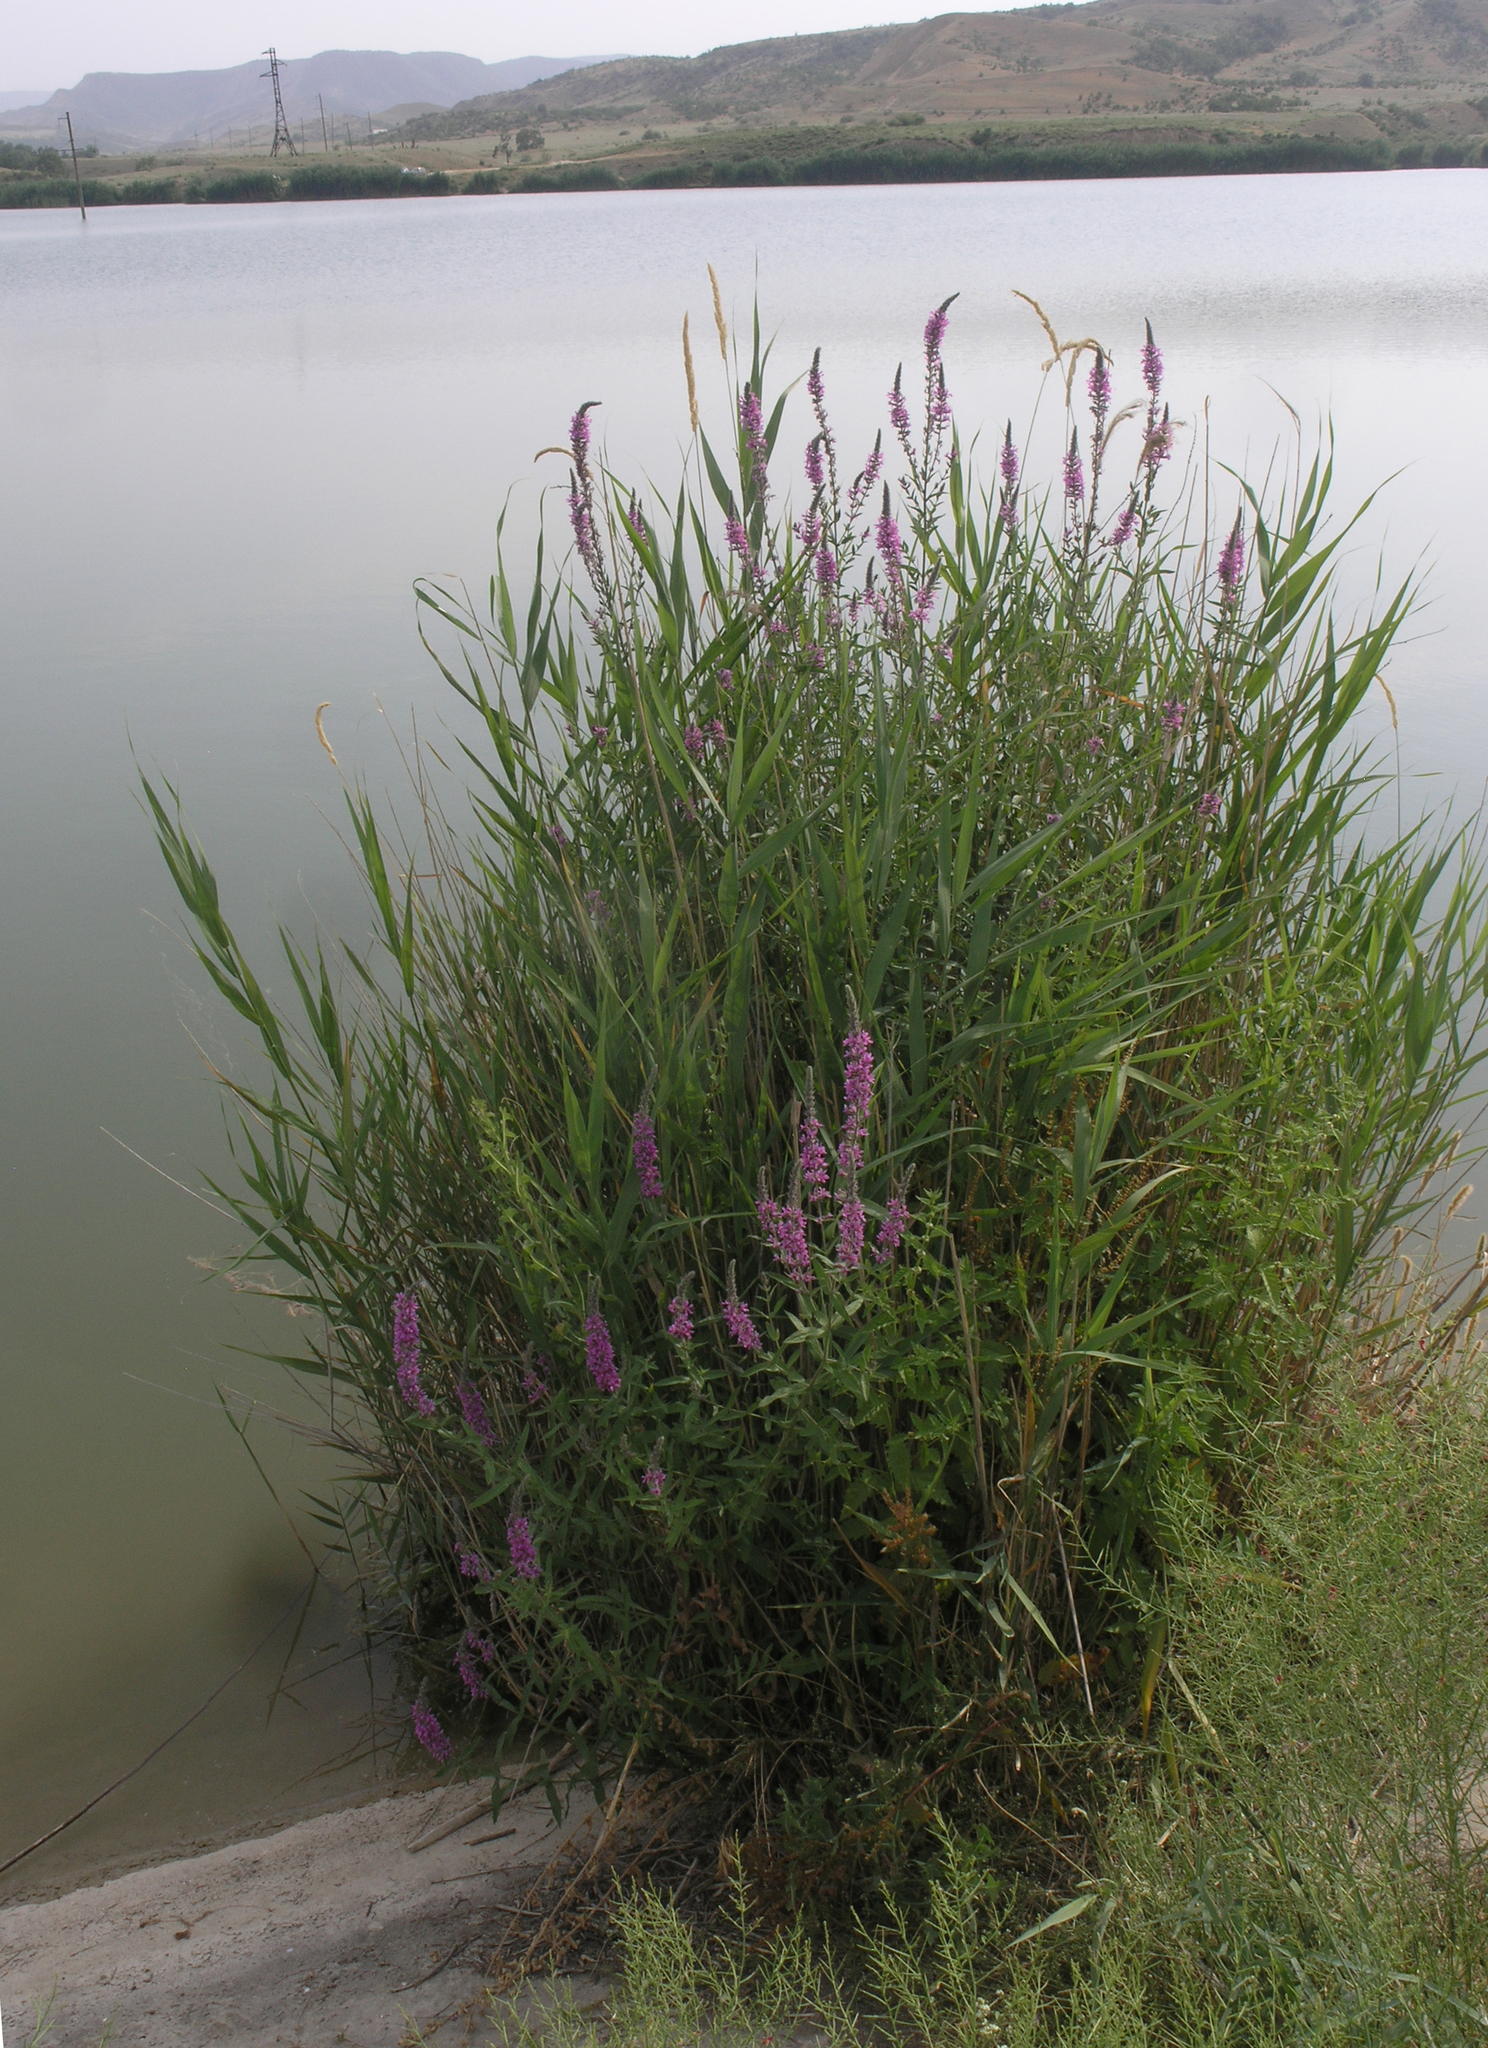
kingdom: Plantae
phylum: Tracheophyta
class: Magnoliopsida
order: Myrtales
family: Lythraceae
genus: Lythrum
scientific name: Lythrum salicaria
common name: Purple loosestrife
